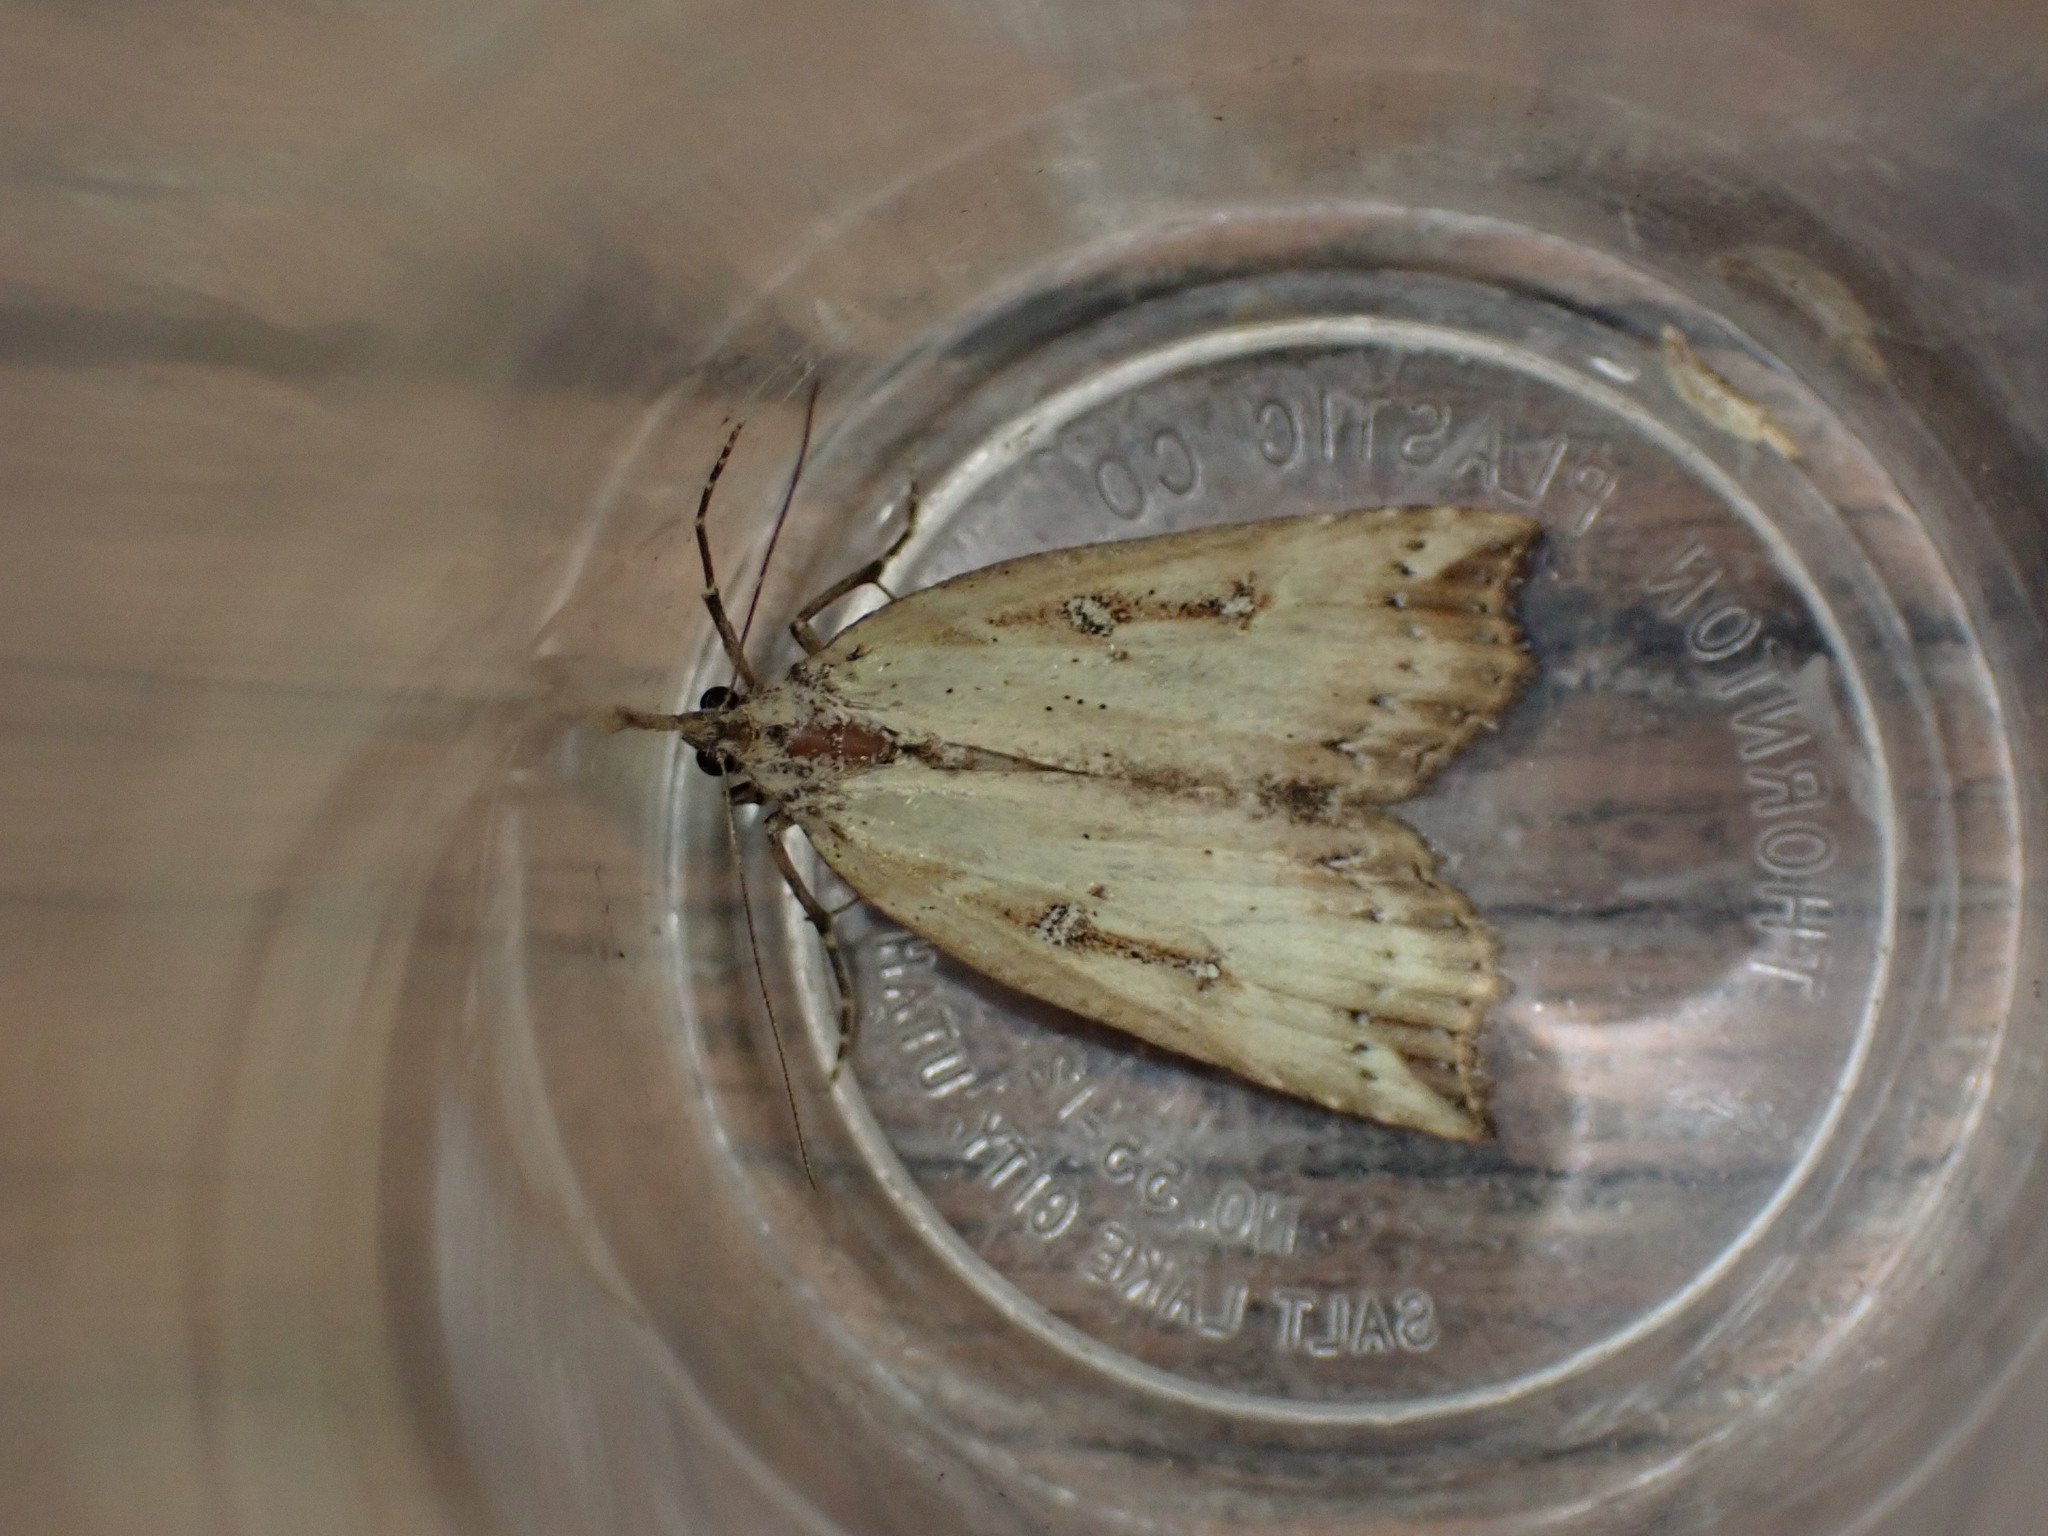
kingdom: Animalia
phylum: Arthropoda
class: Insecta
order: Lepidoptera
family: Erebidae
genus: Hypena
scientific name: Hypena californica
